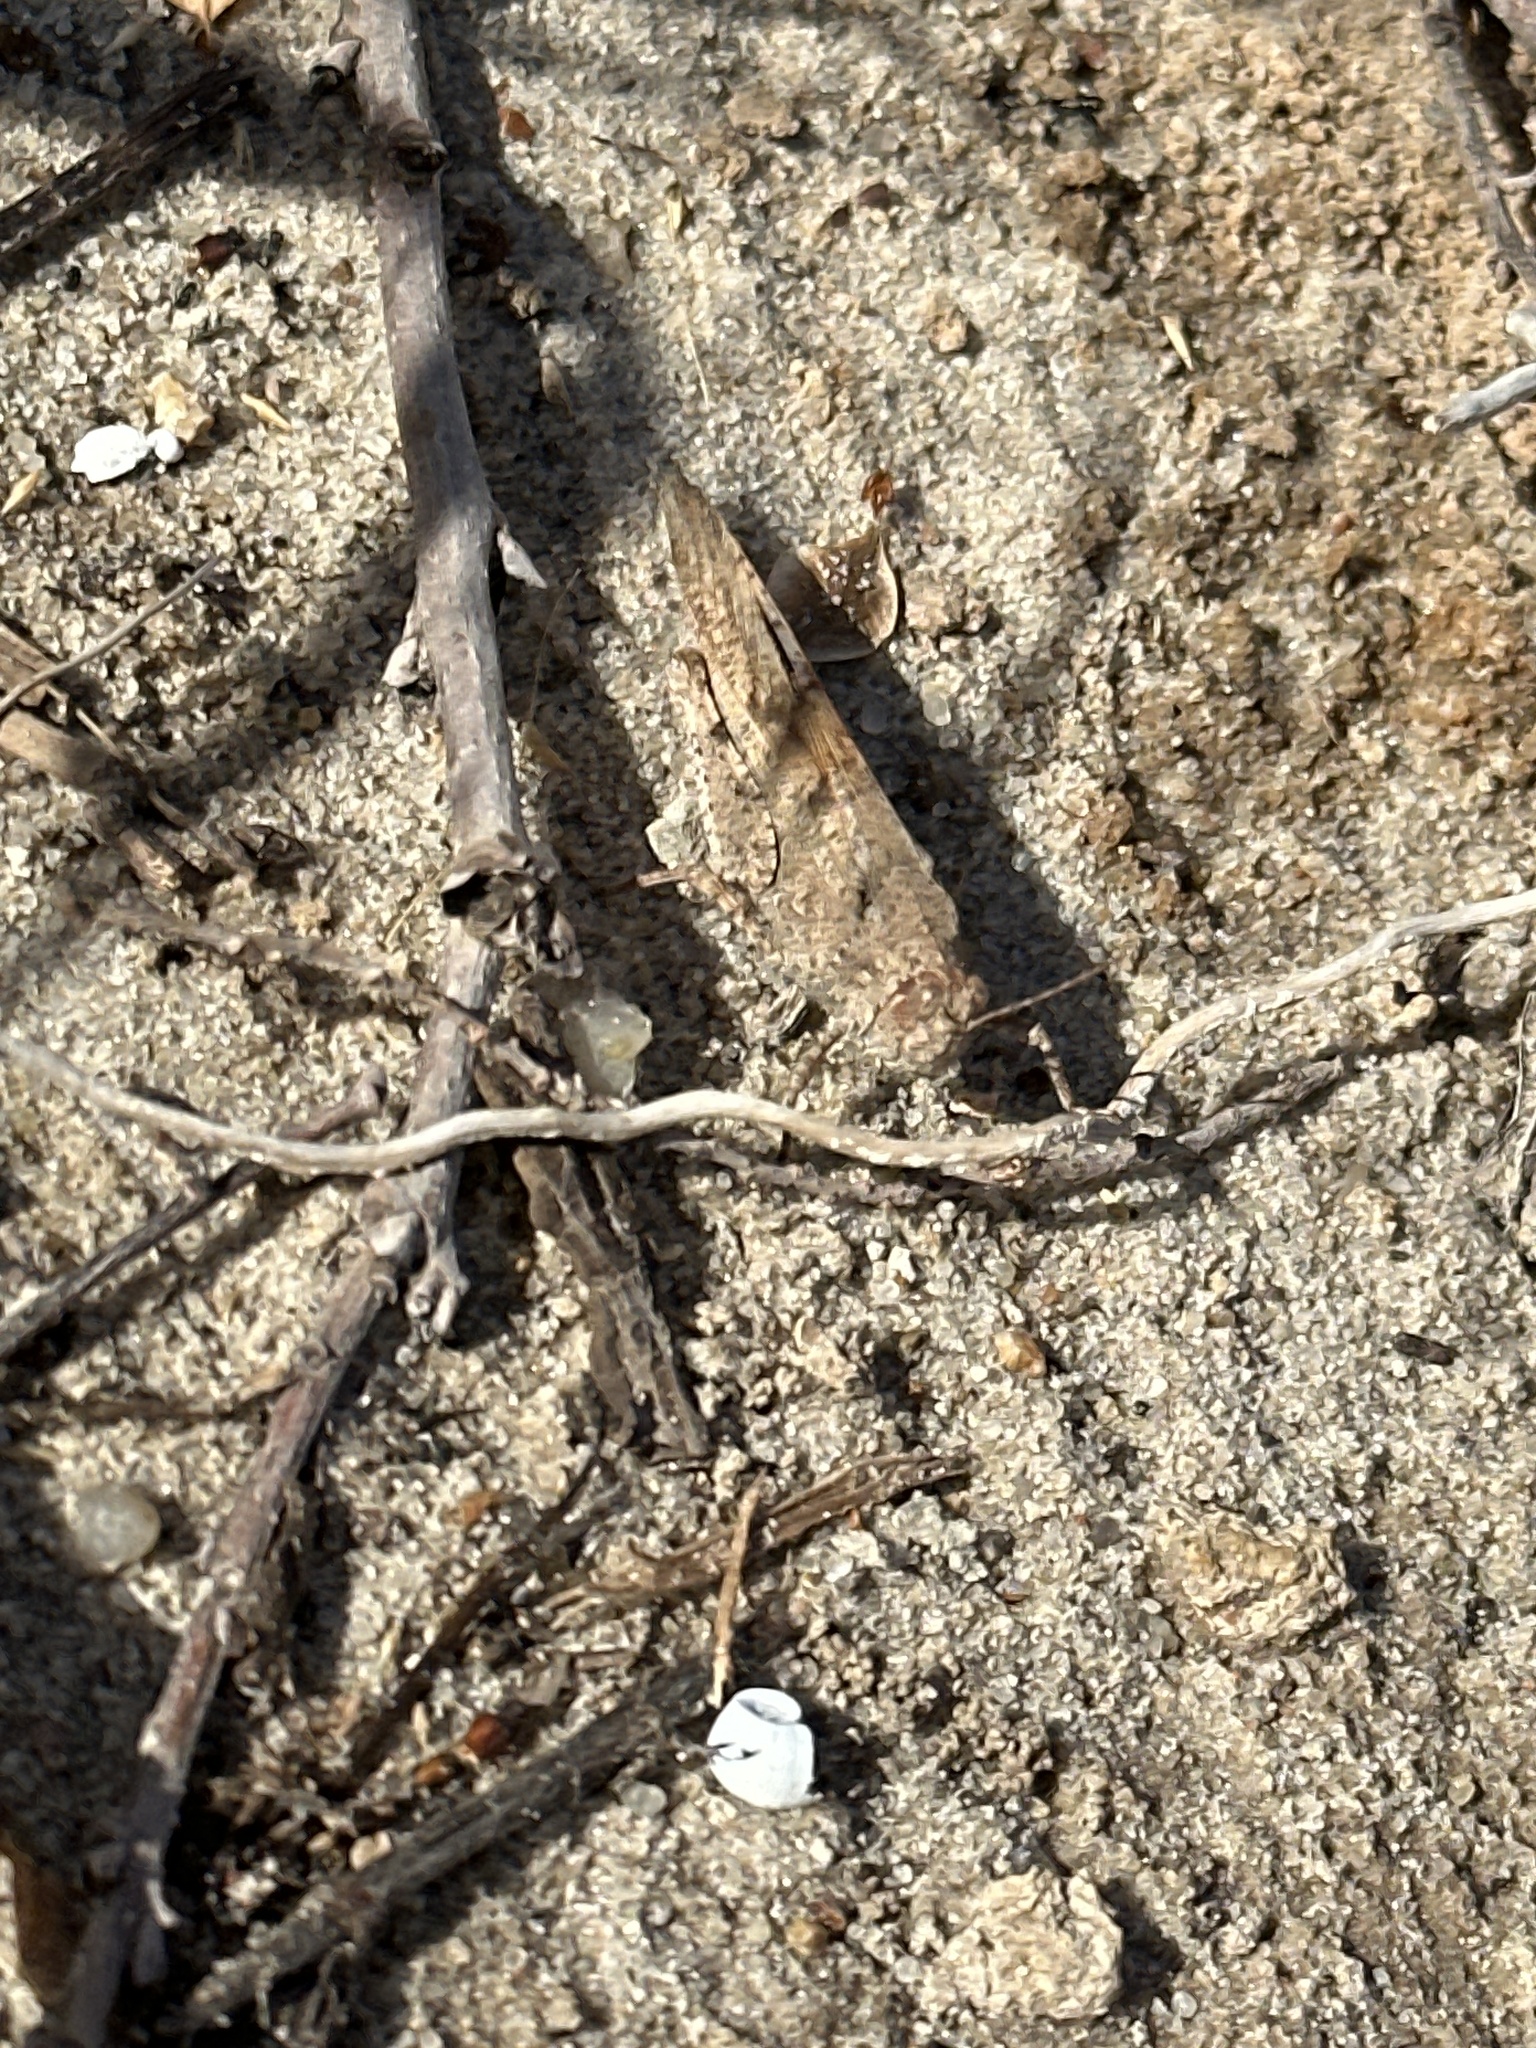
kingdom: Animalia
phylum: Arthropoda
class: Insecta
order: Orthoptera
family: Acrididae
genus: Trimerotropis
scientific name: Trimerotropis maritima
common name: Seaside locust
